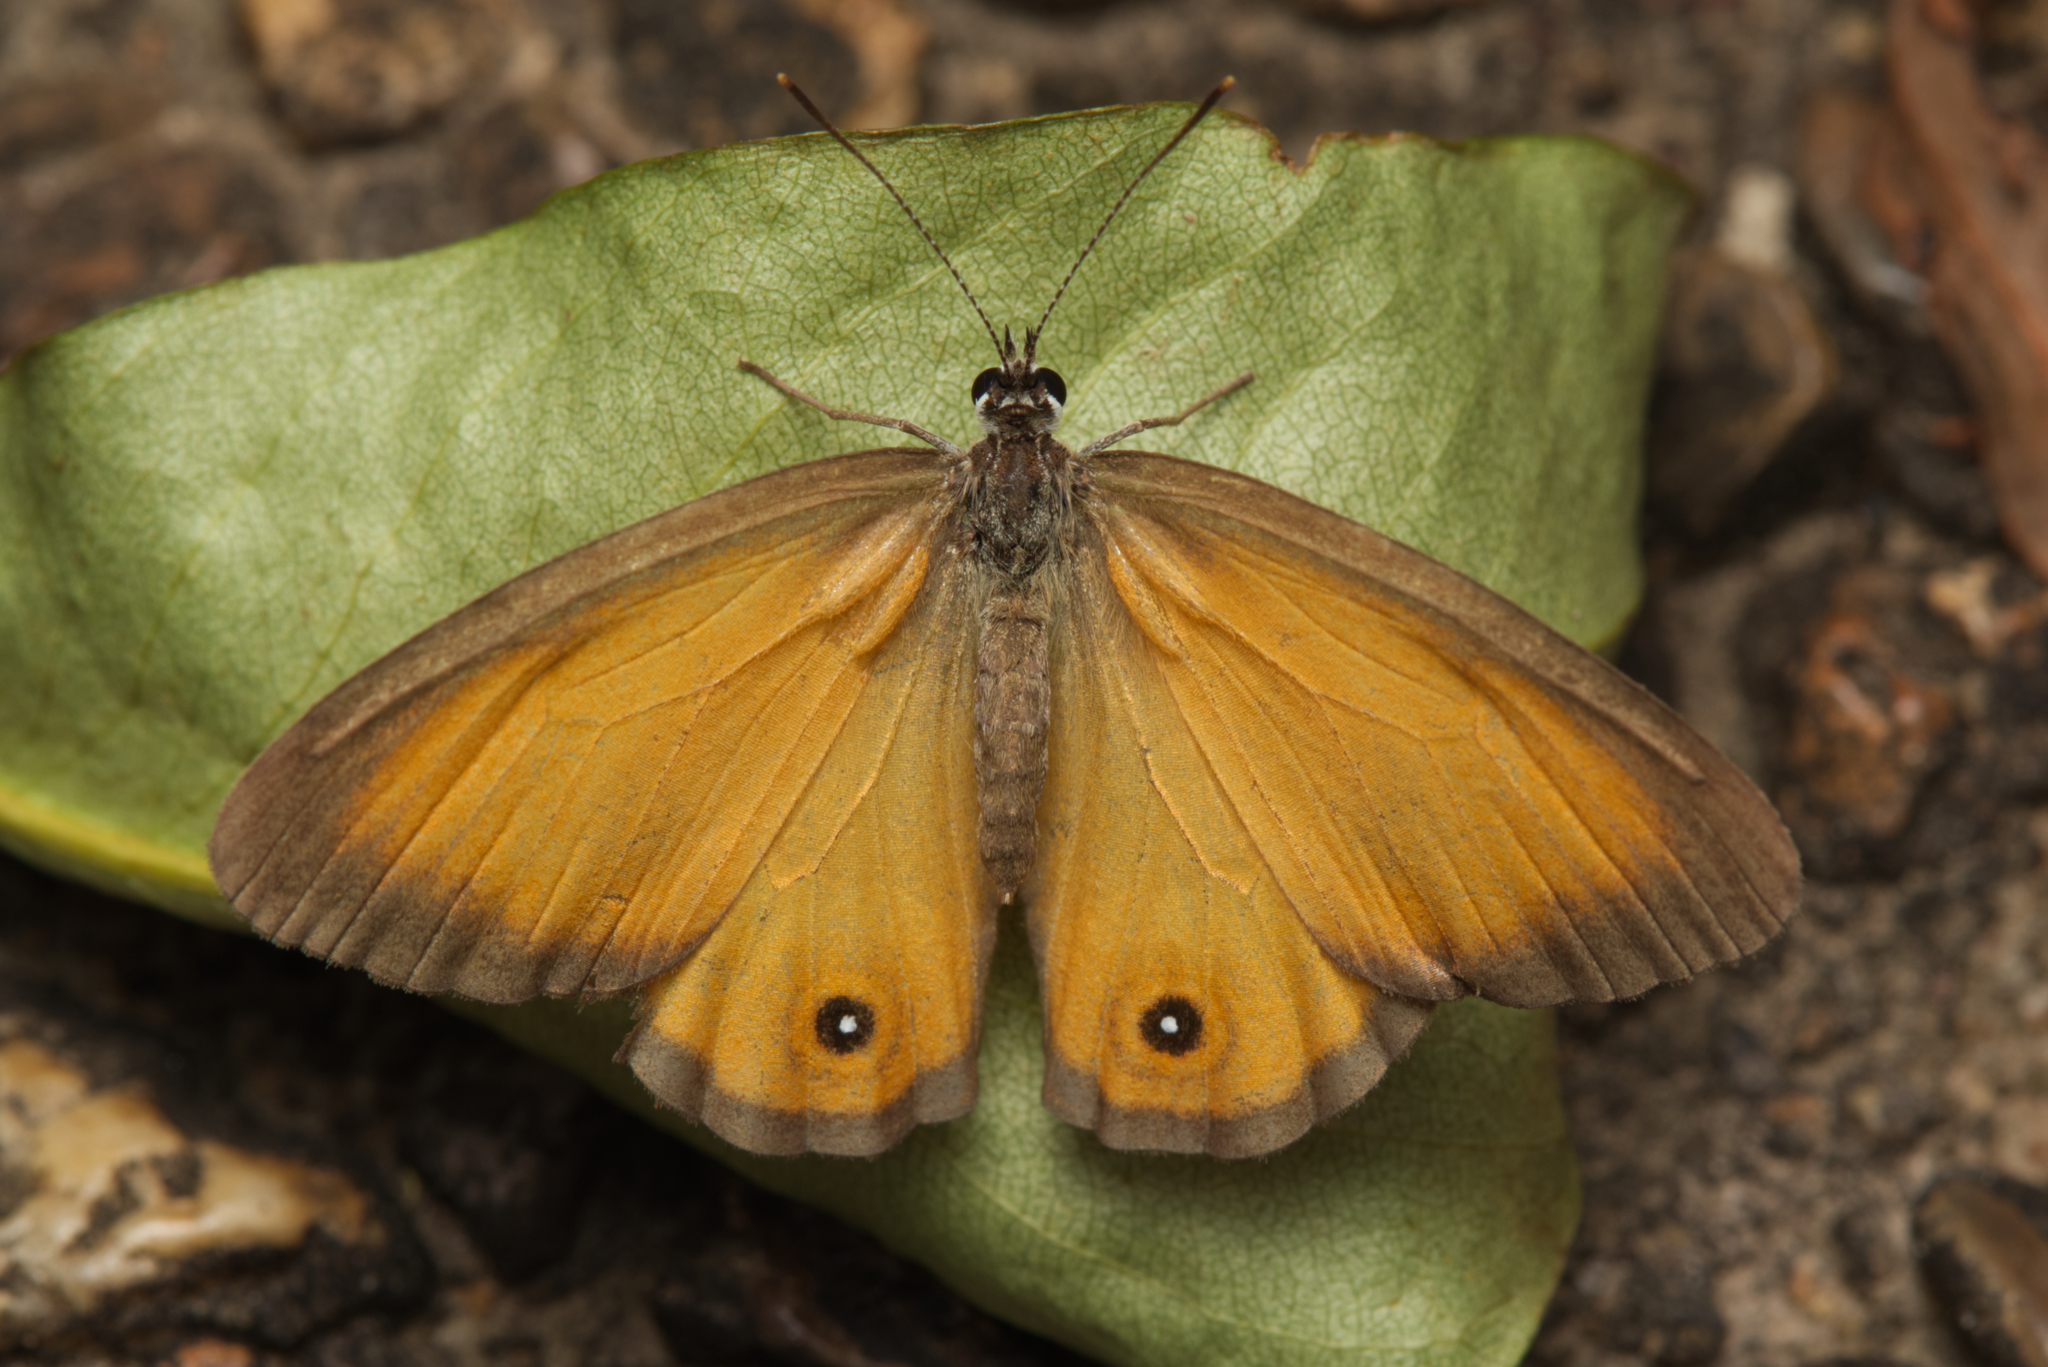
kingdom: Animalia
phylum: Arthropoda
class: Insecta
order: Lepidoptera
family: Nymphalidae
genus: Hypocysta
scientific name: Hypocysta adiante
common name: Orange ringlet
